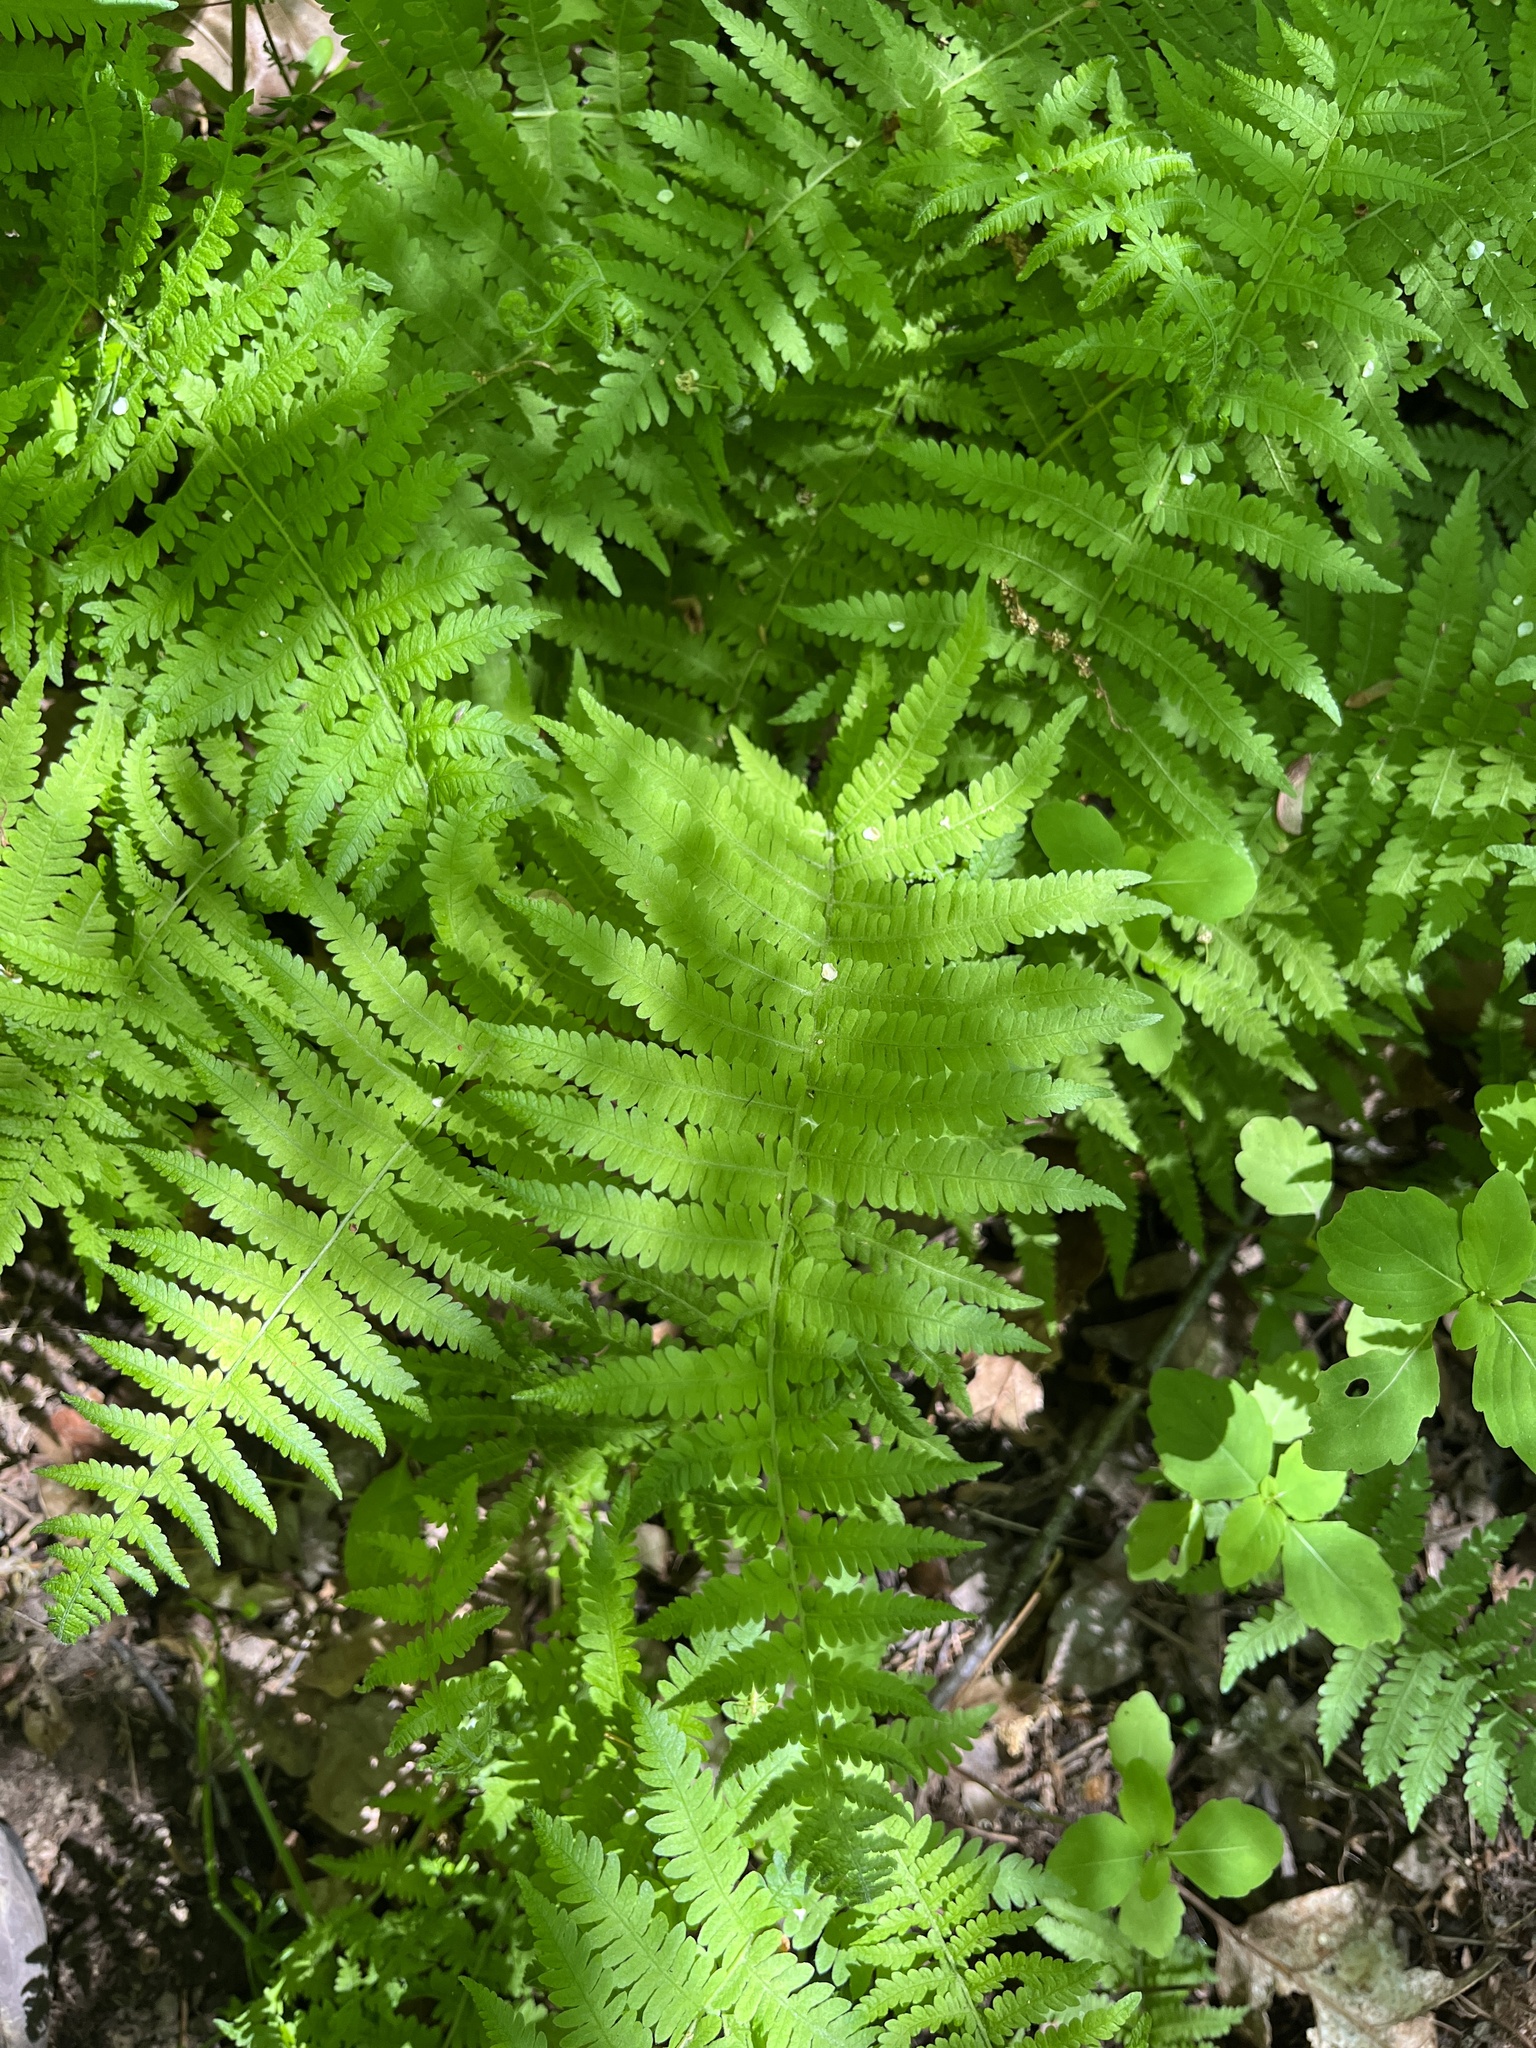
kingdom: Plantae
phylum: Tracheophyta
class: Polypodiopsida
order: Polypodiales
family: Thelypteridaceae
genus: Amauropelta
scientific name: Amauropelta noveboracensis
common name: New york fern
